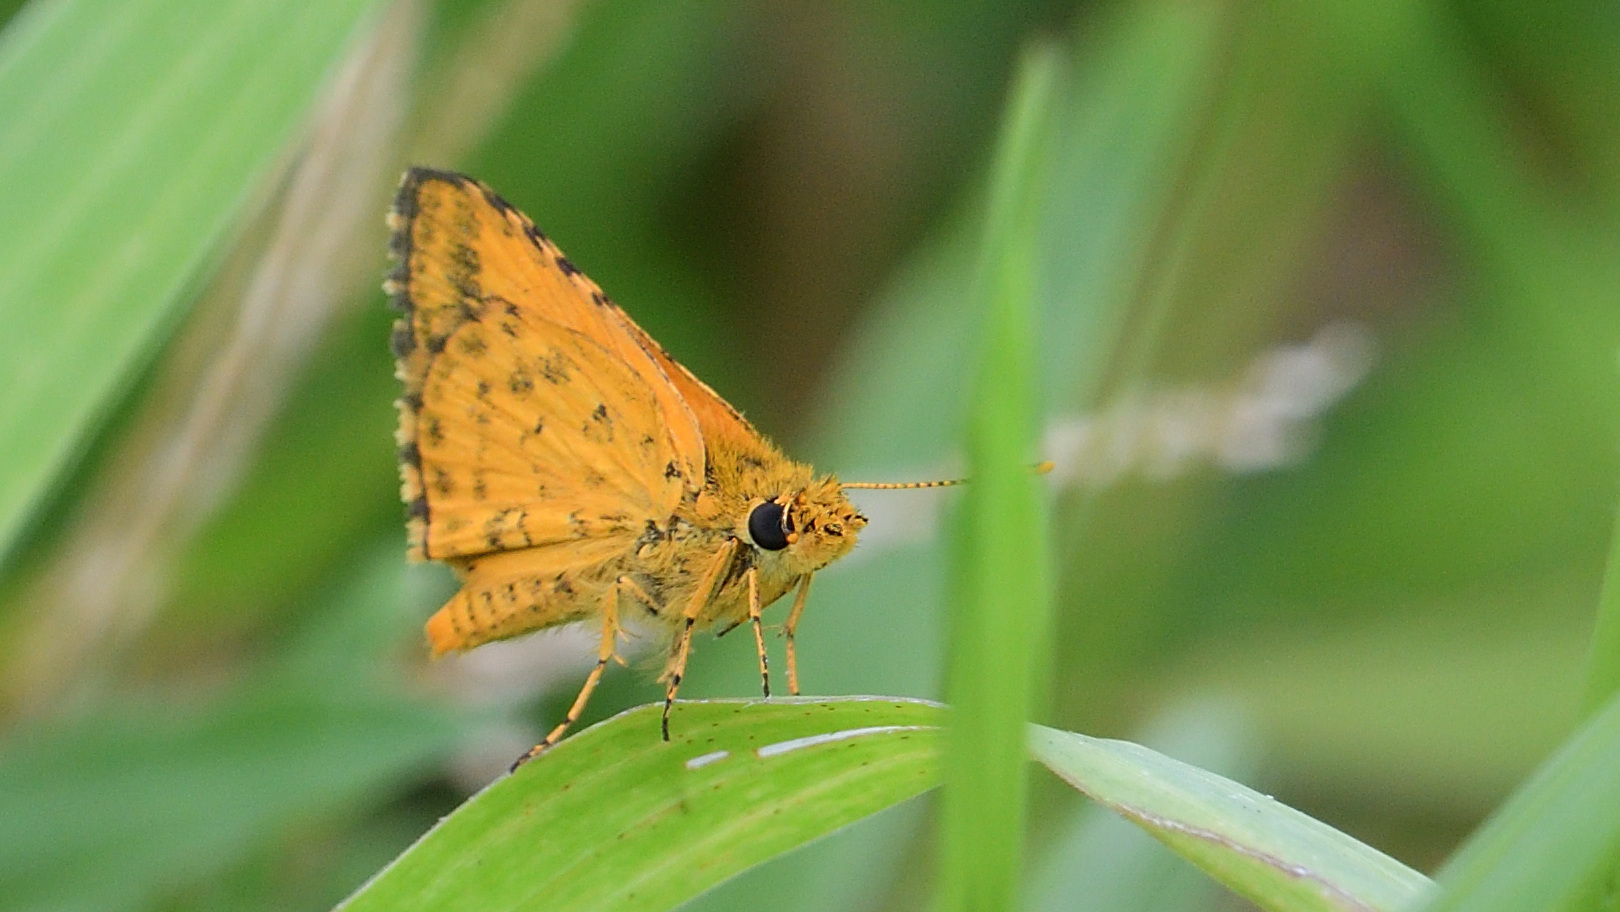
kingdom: Animalia
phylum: Arthropoda
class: Insecta
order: Lepidoptera
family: Hesperiidae
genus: Ampittia
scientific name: Ampittia dioscorides
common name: Common bush hopper
